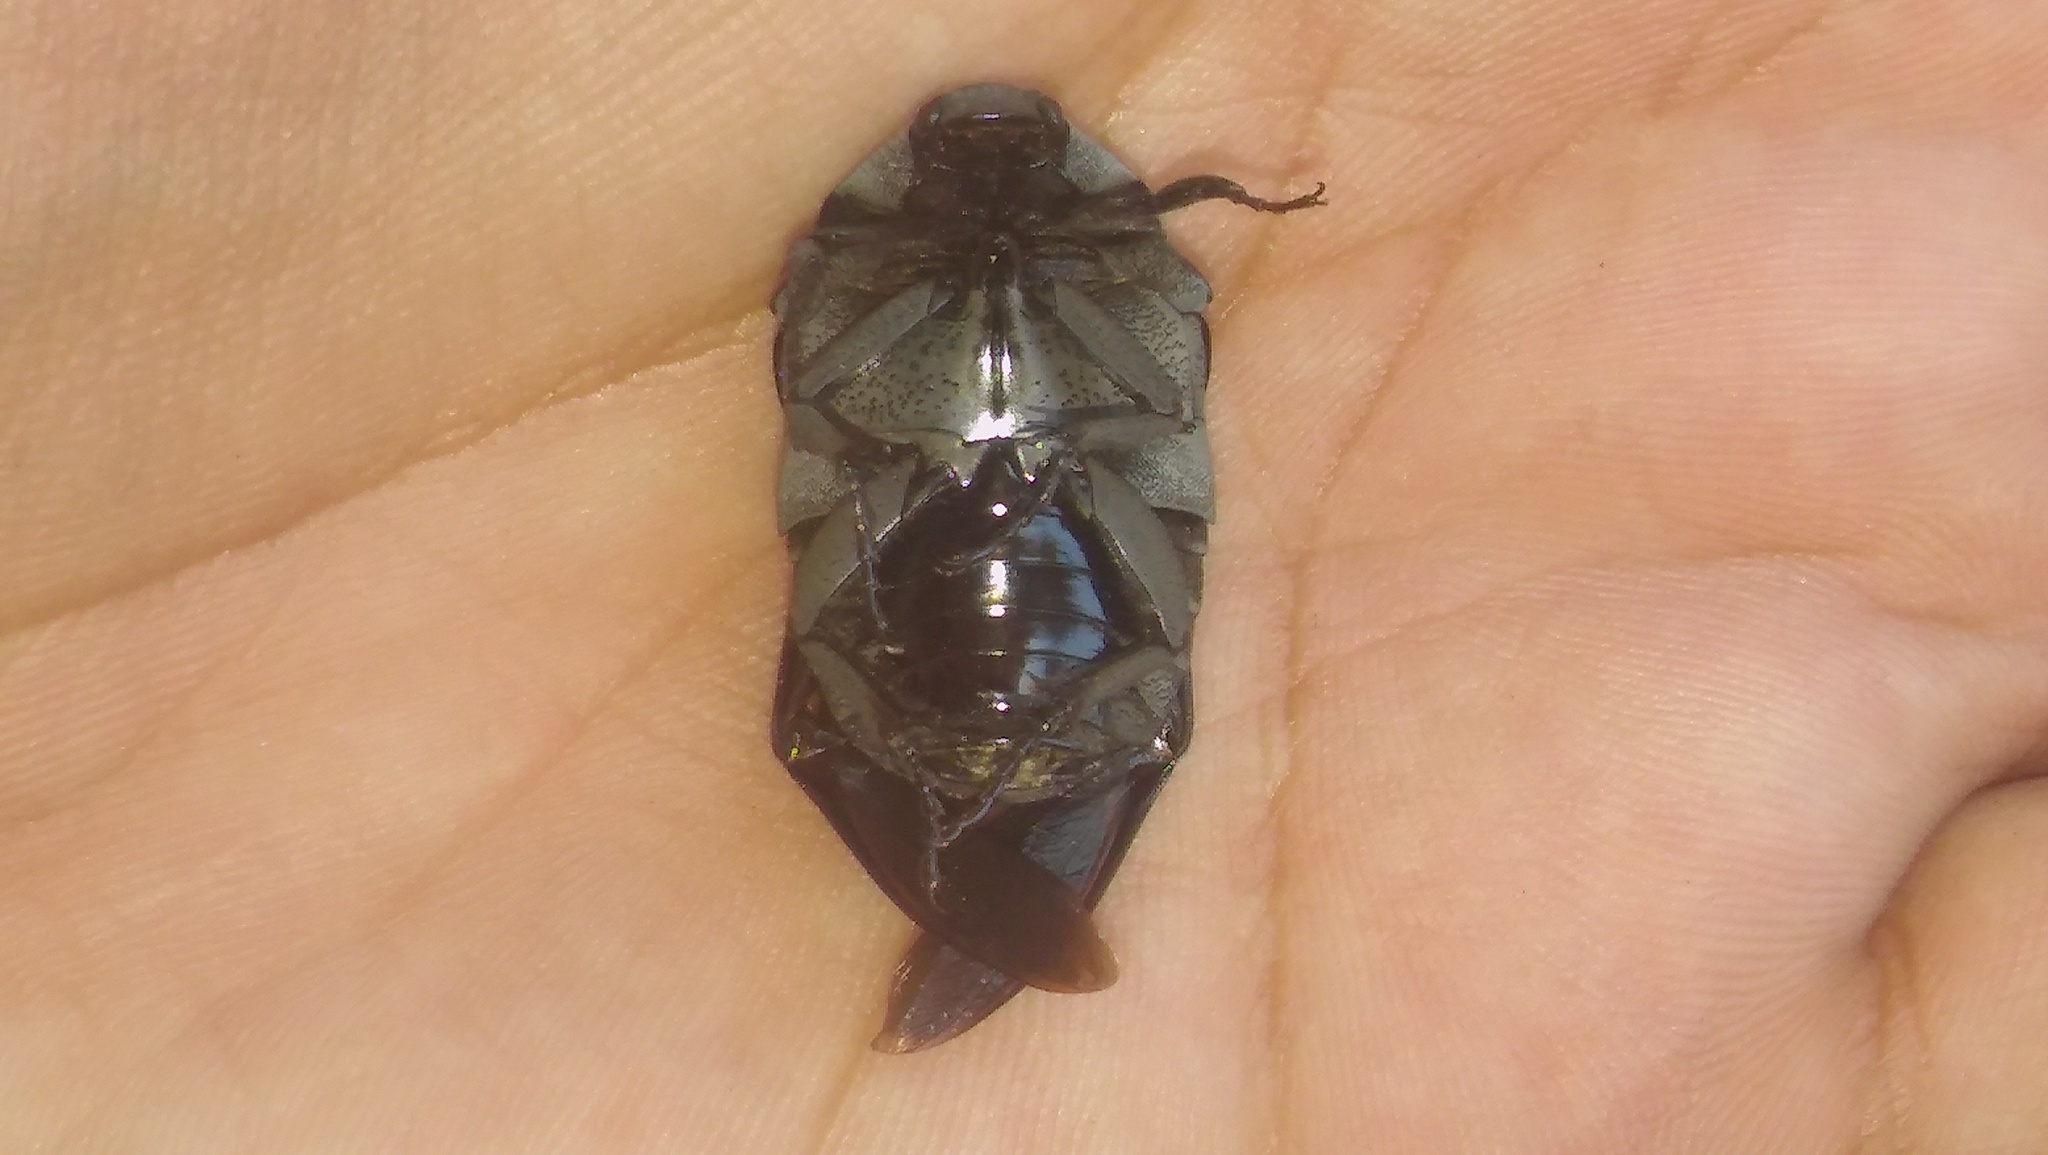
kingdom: Animalia
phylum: Arthropoda
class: Insecta
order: Coleoptera
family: Scarabaeidae
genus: Gymnetis
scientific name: Gymnetis pudibunda
